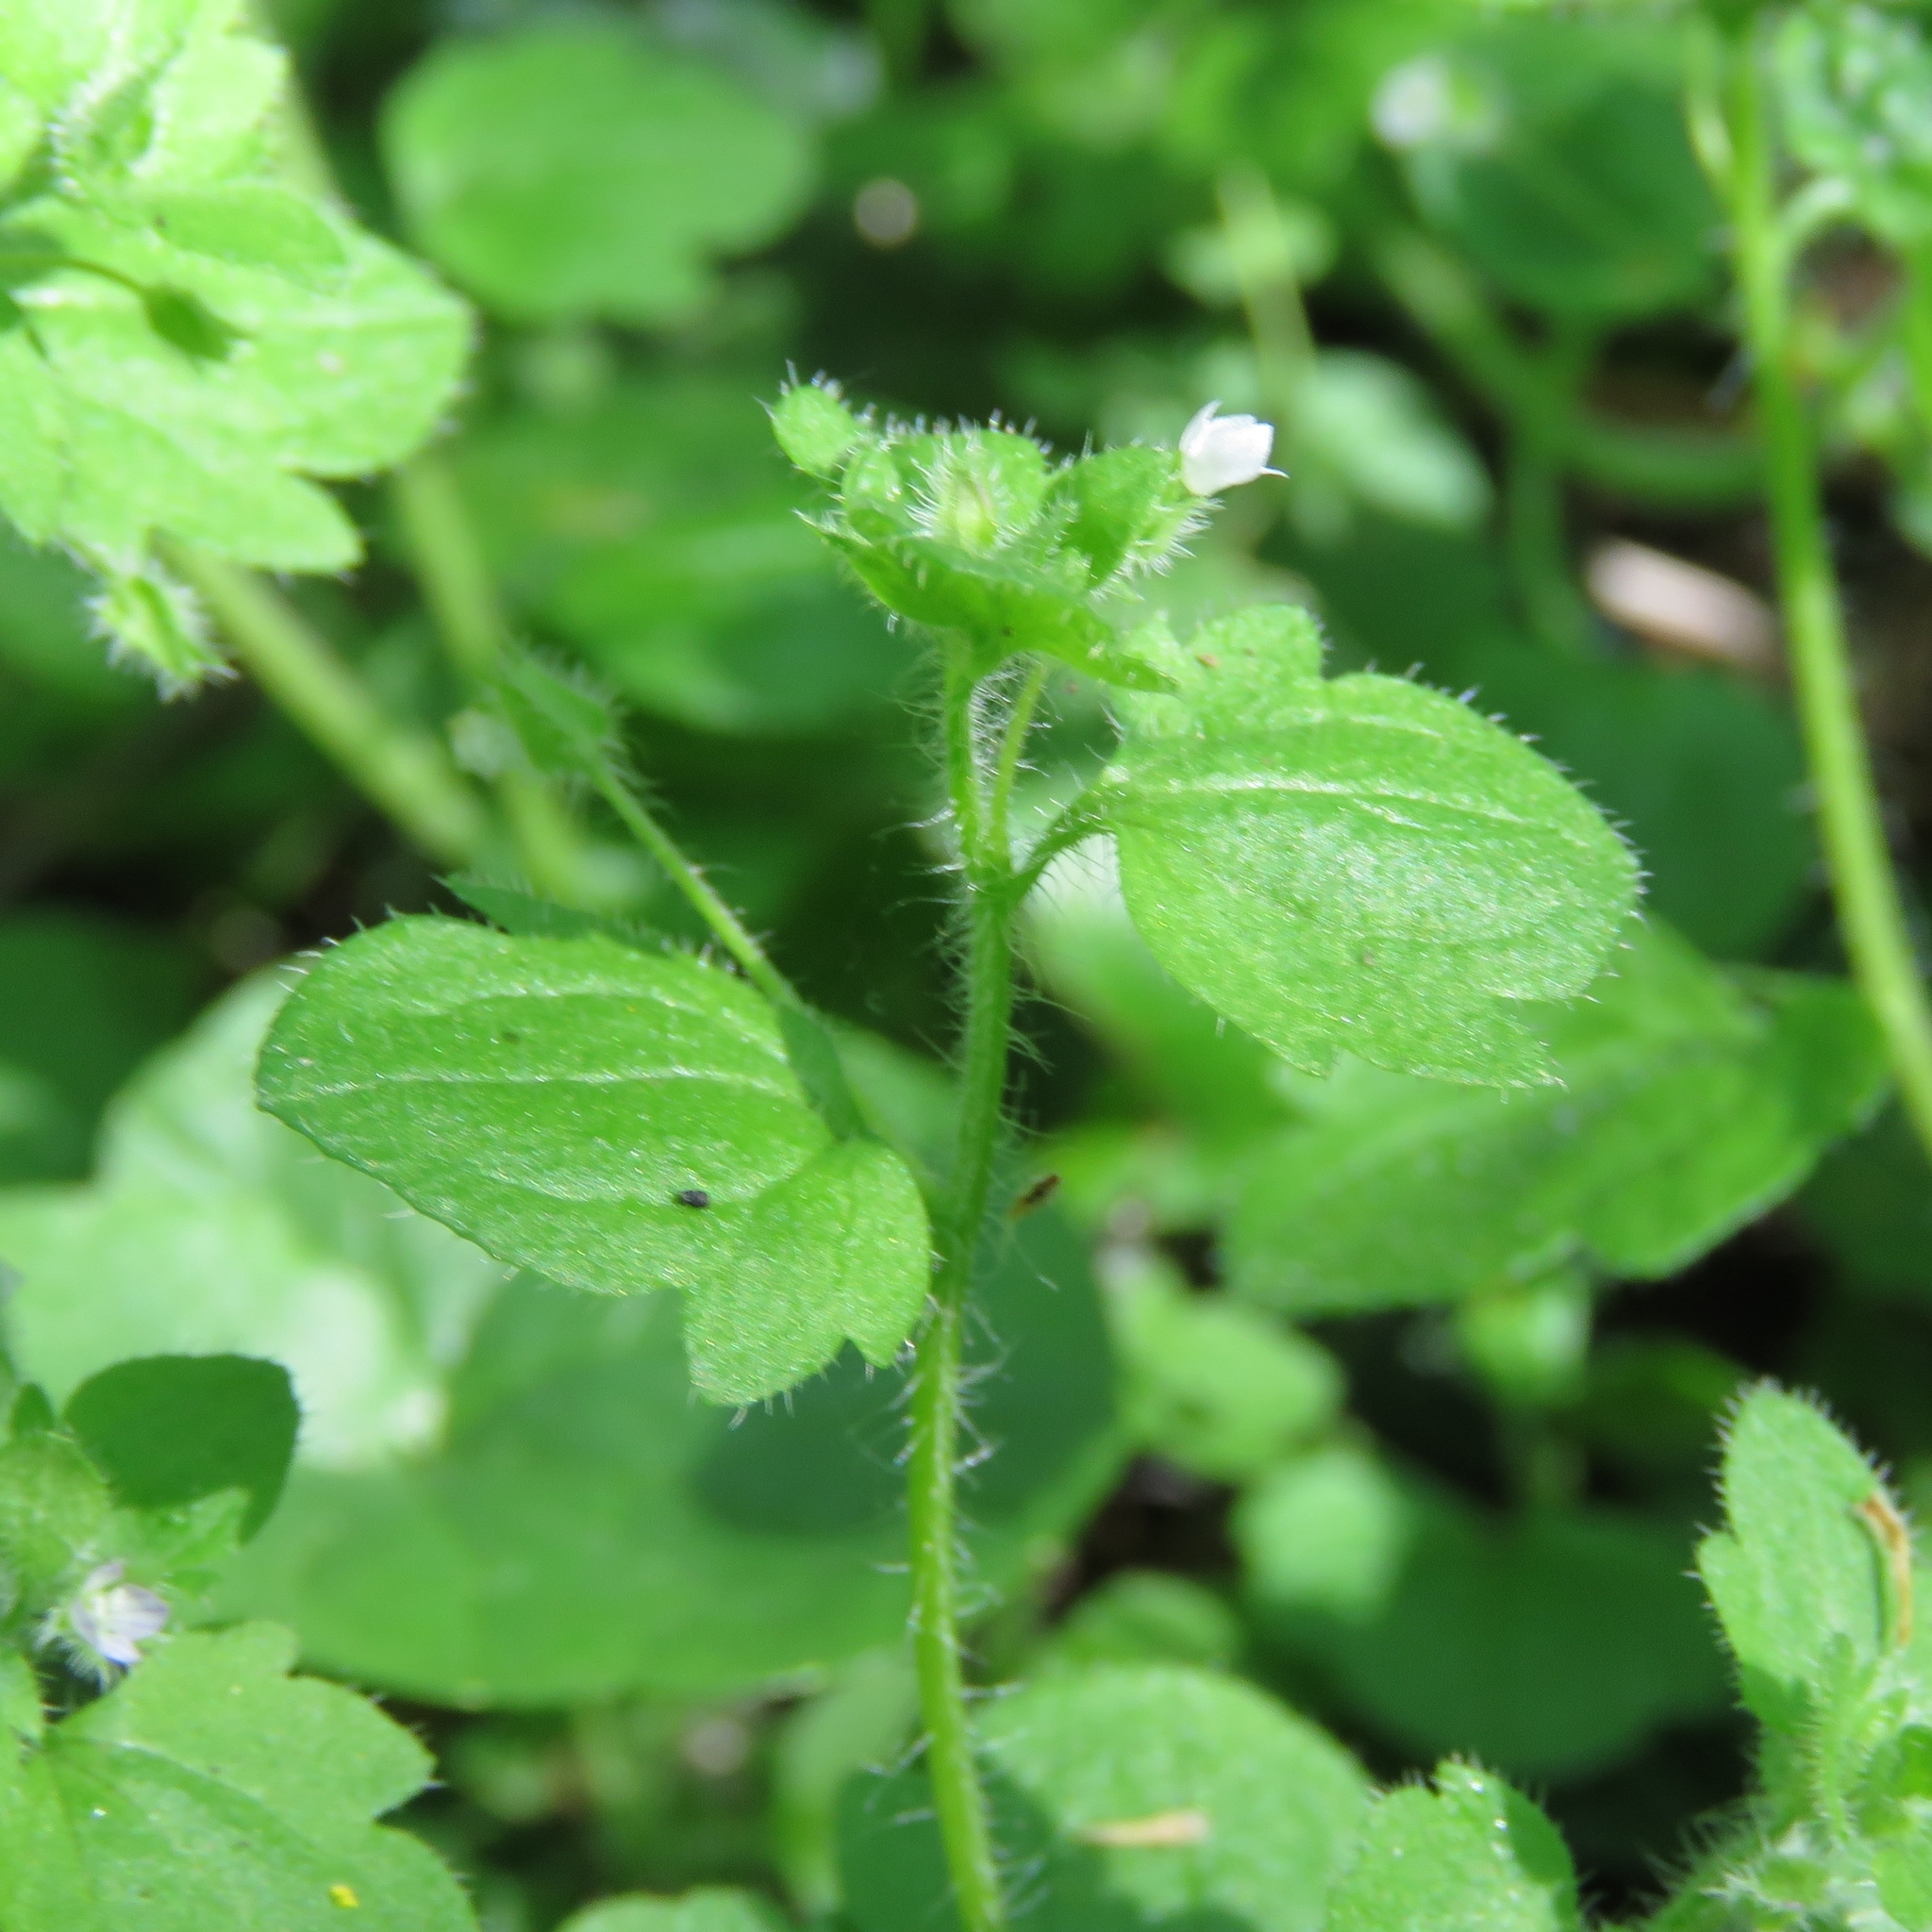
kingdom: Plantae
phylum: Tracheophyta
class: Magnoliopsida
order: Lamiales
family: Plantaginaceae
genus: Veronica
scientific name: Veronica hederifolia
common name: Ivy-leaved speedwell
